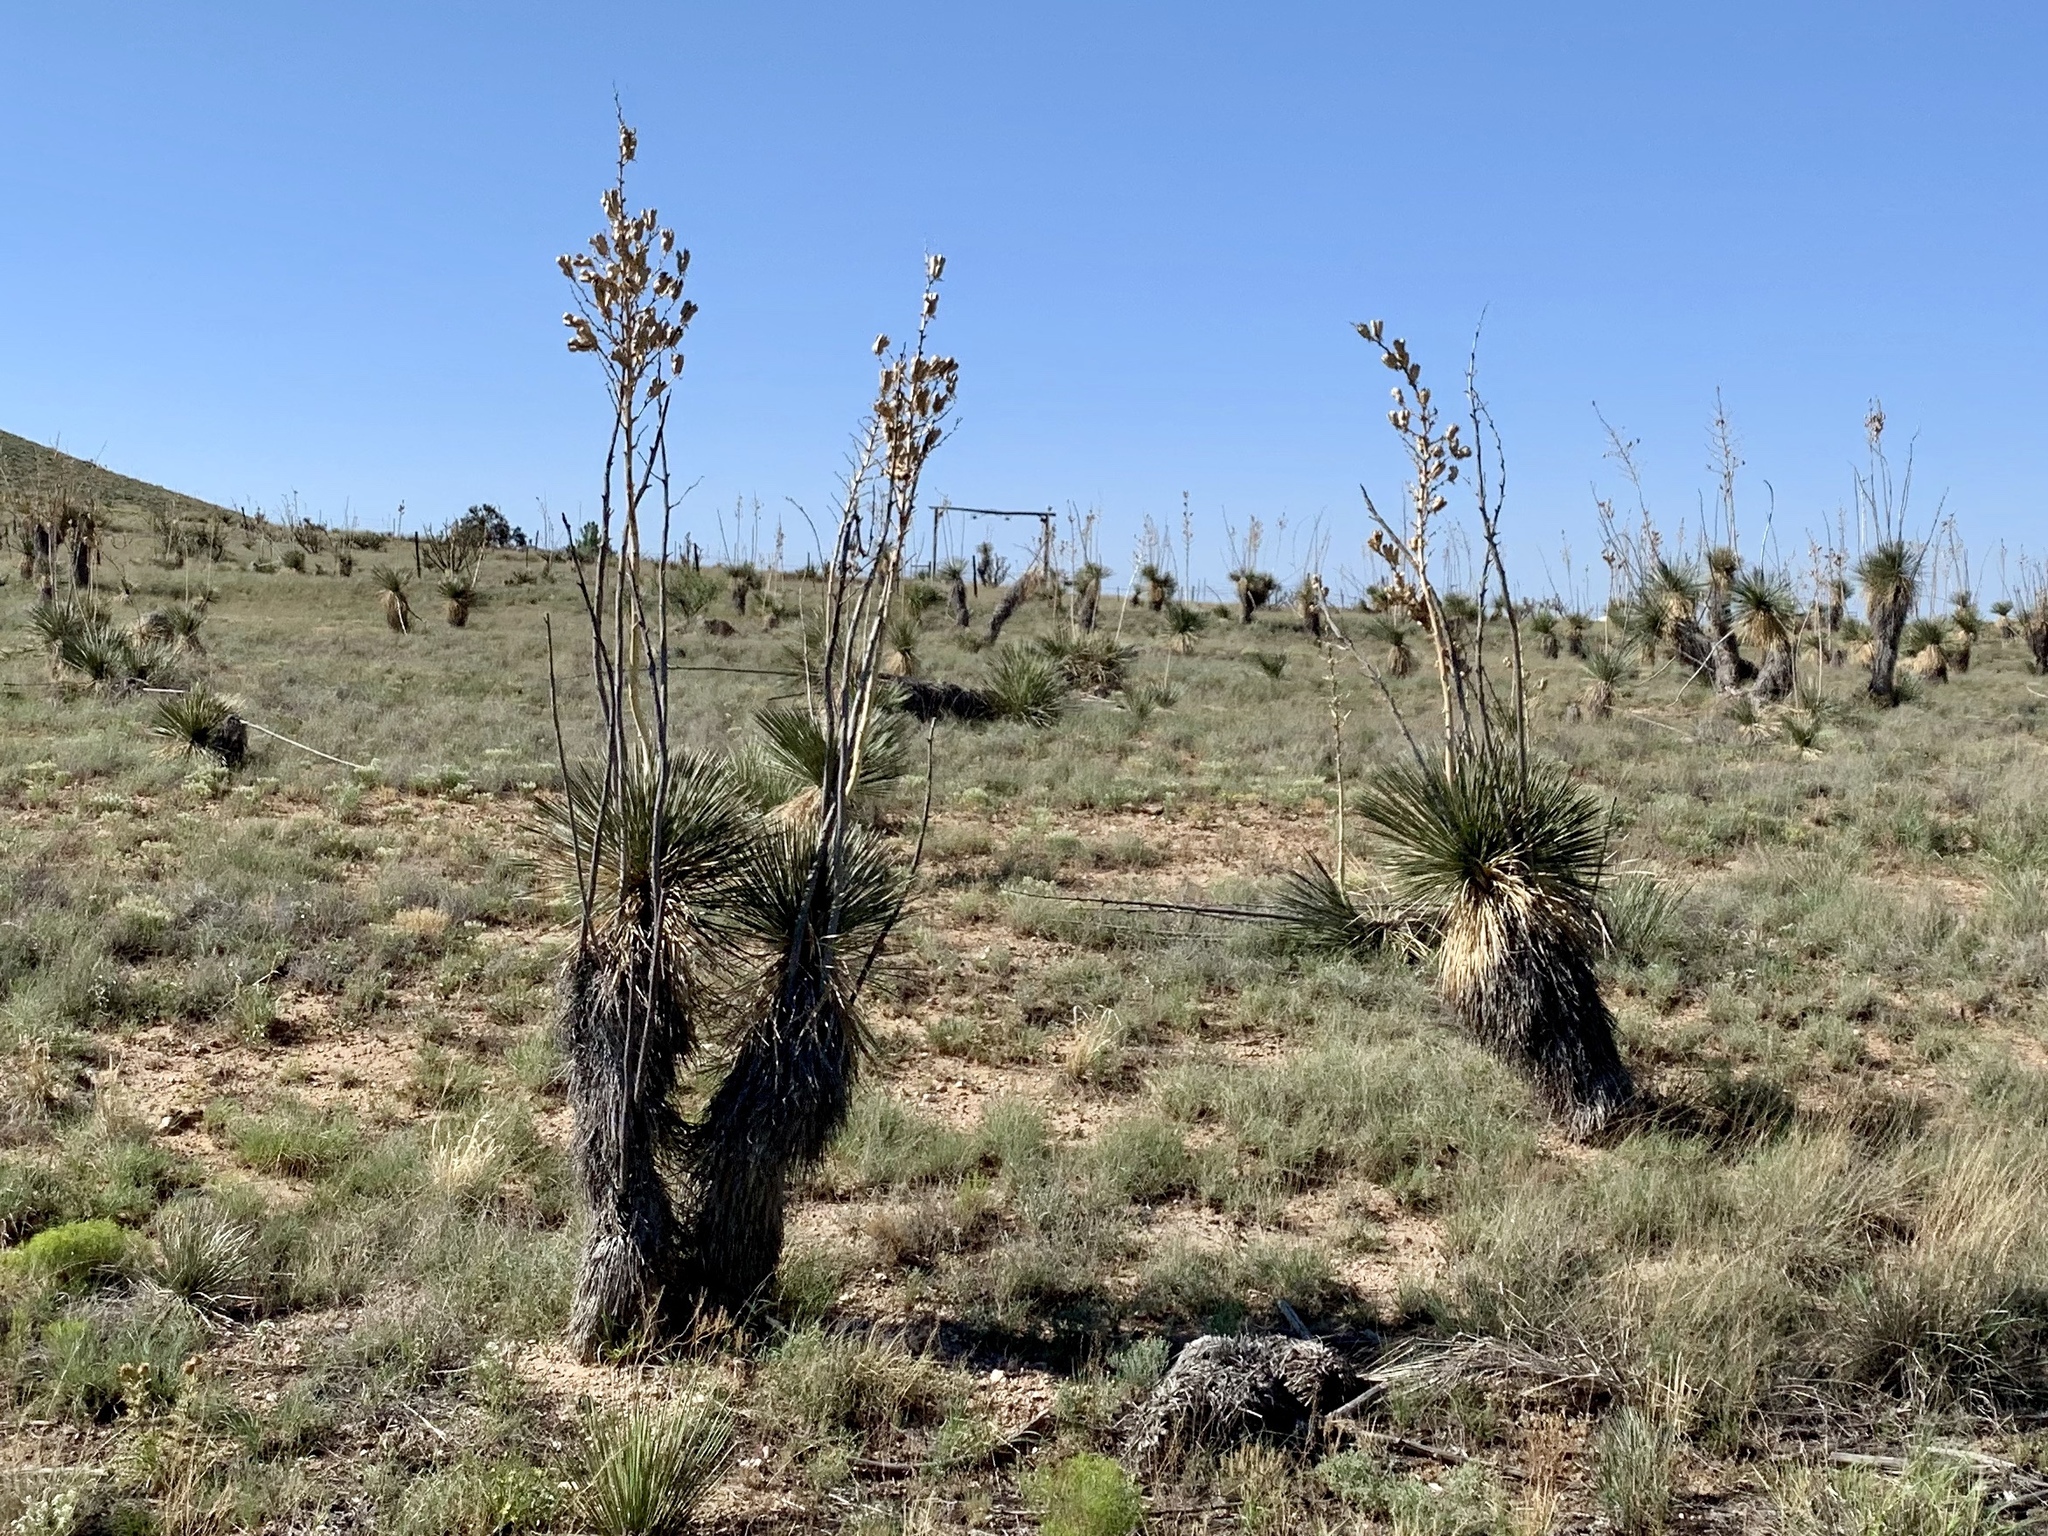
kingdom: Plantae
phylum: Tracheophyta
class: Liliopsida
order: Asparagales
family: Asparagaceae
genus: Yucca
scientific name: Yucca elata
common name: Palmella
